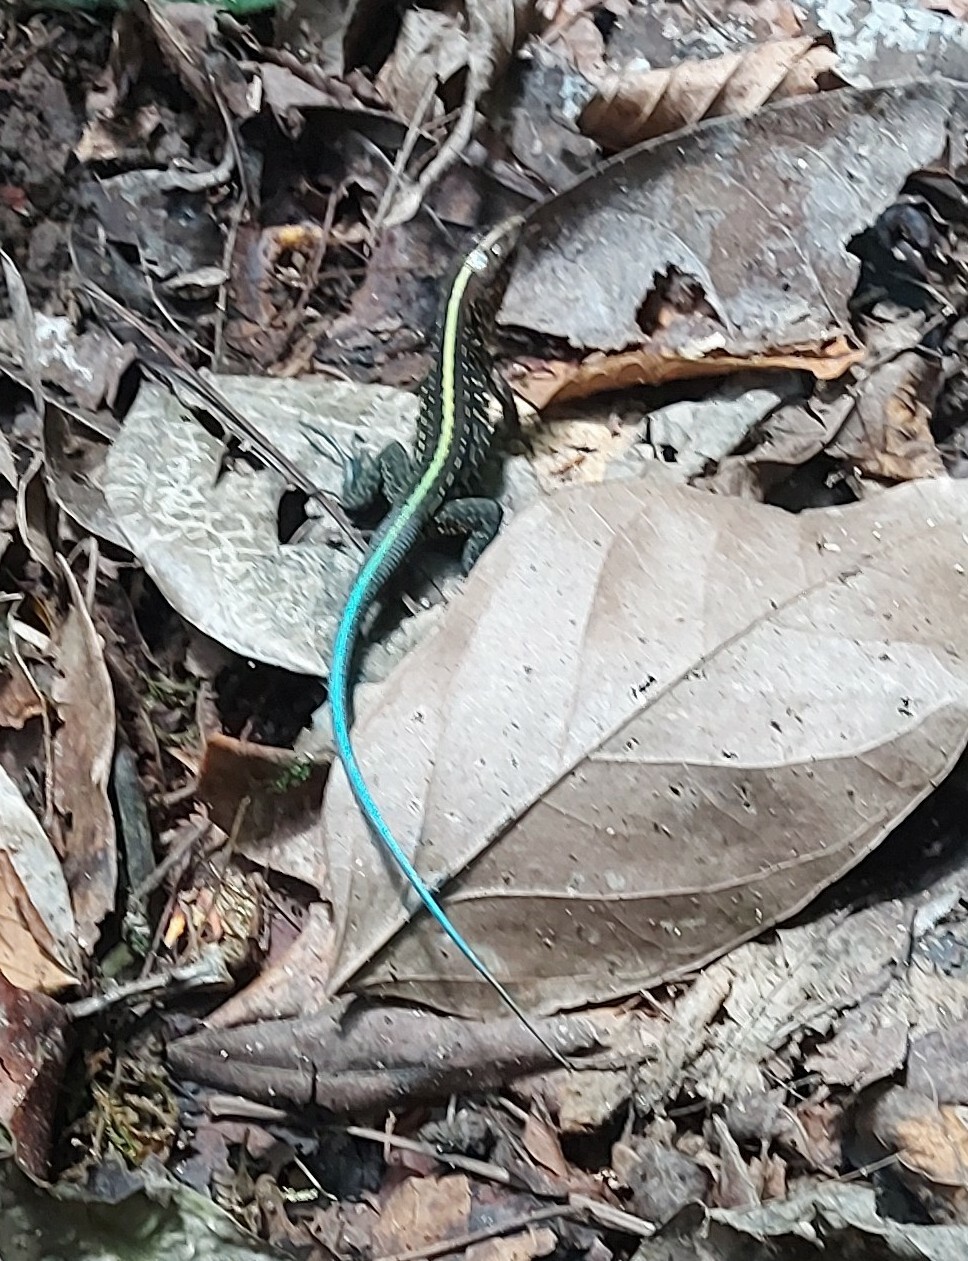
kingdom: Animalia
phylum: Chordata
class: Squamata
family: Teiidae
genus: Holcosus
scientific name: Holcosus festivus
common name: Middle american ameiva
